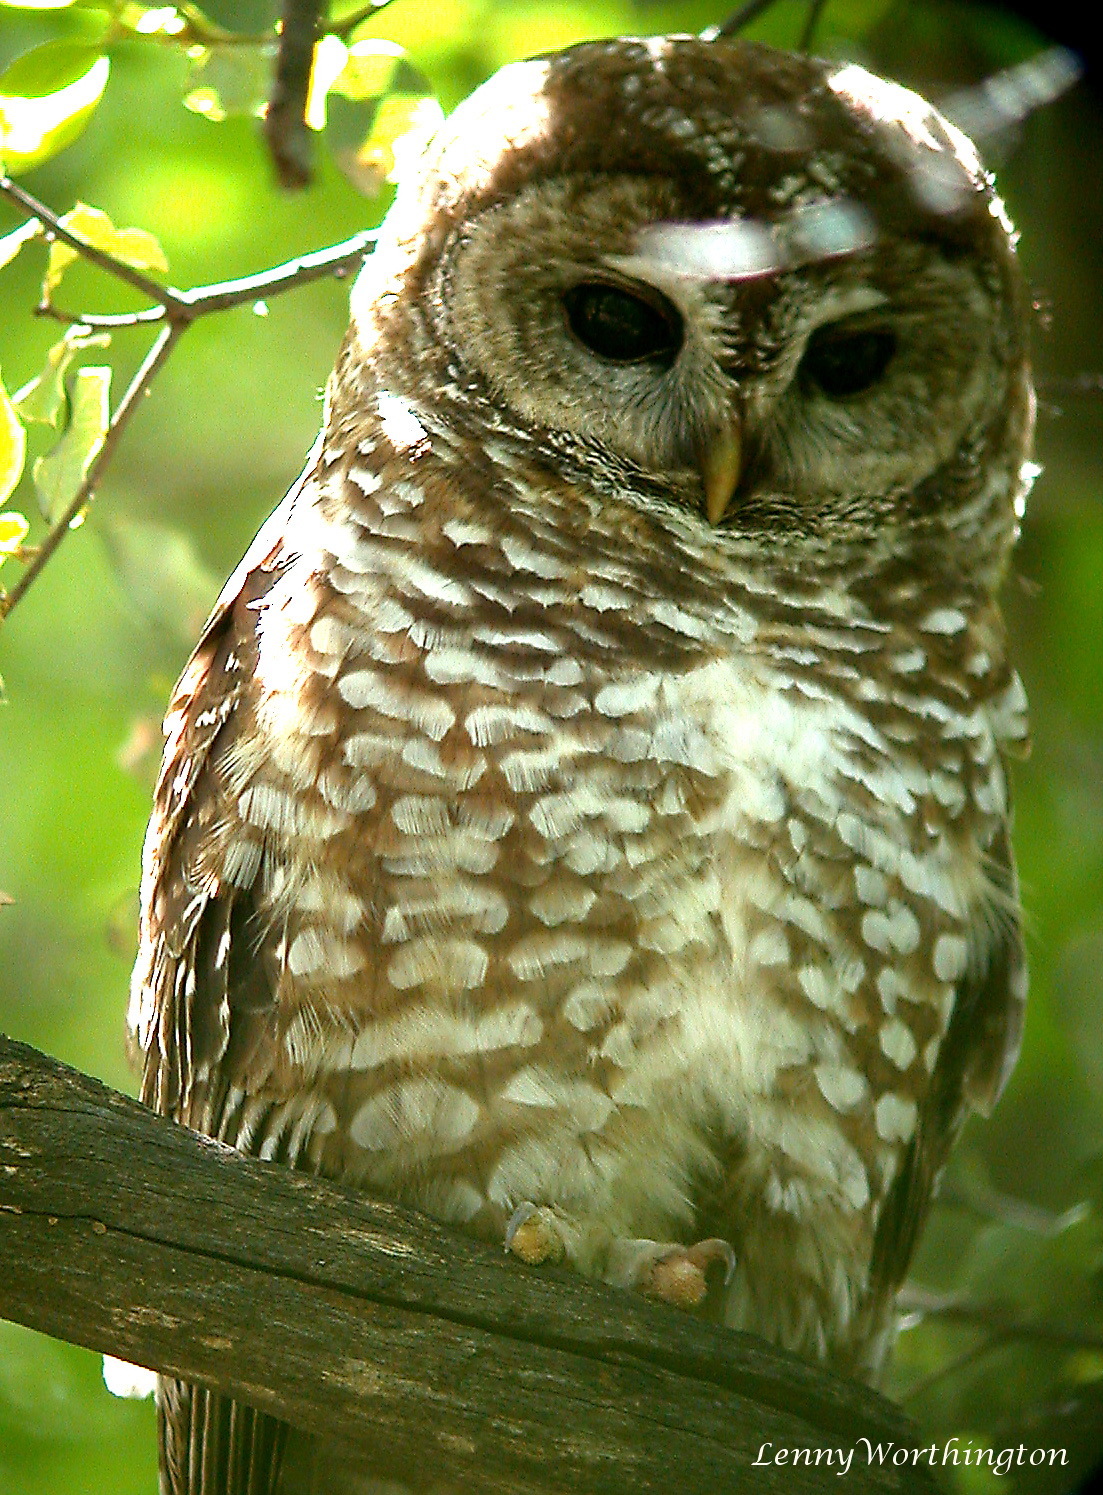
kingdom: Animalia
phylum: Chordata
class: Aves
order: Strigiformes
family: Strigidae
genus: Strix
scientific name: Strix occidentalis
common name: Spotted owl
